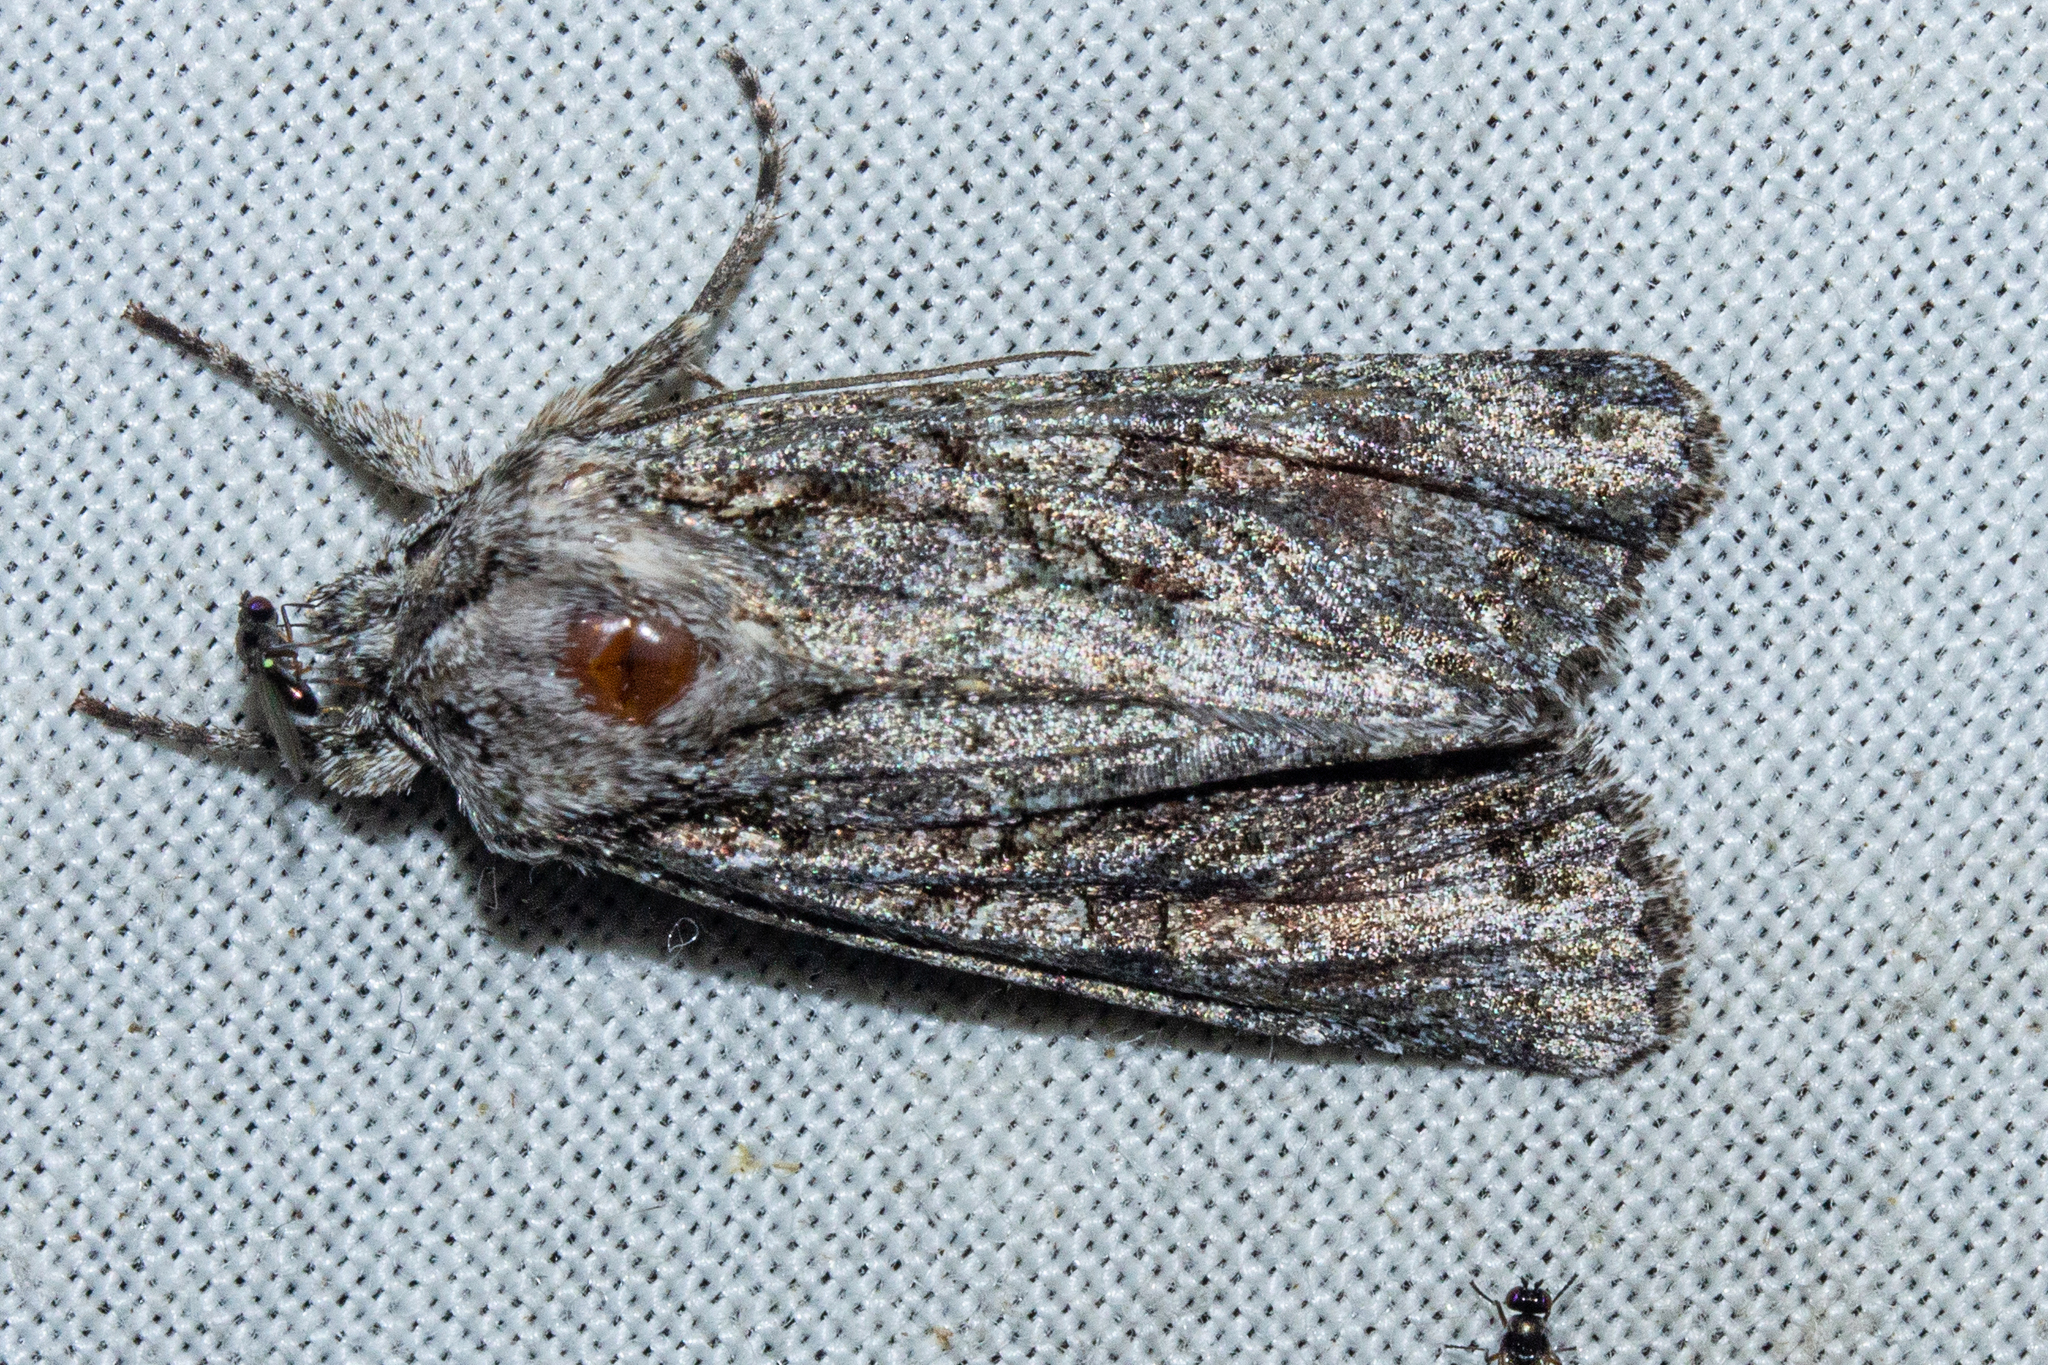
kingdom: Animalia
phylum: Arthropoda
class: Insecta
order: Lepidoptera
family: Noctuidae
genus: Ichneutica
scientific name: Ichneutica mutans
